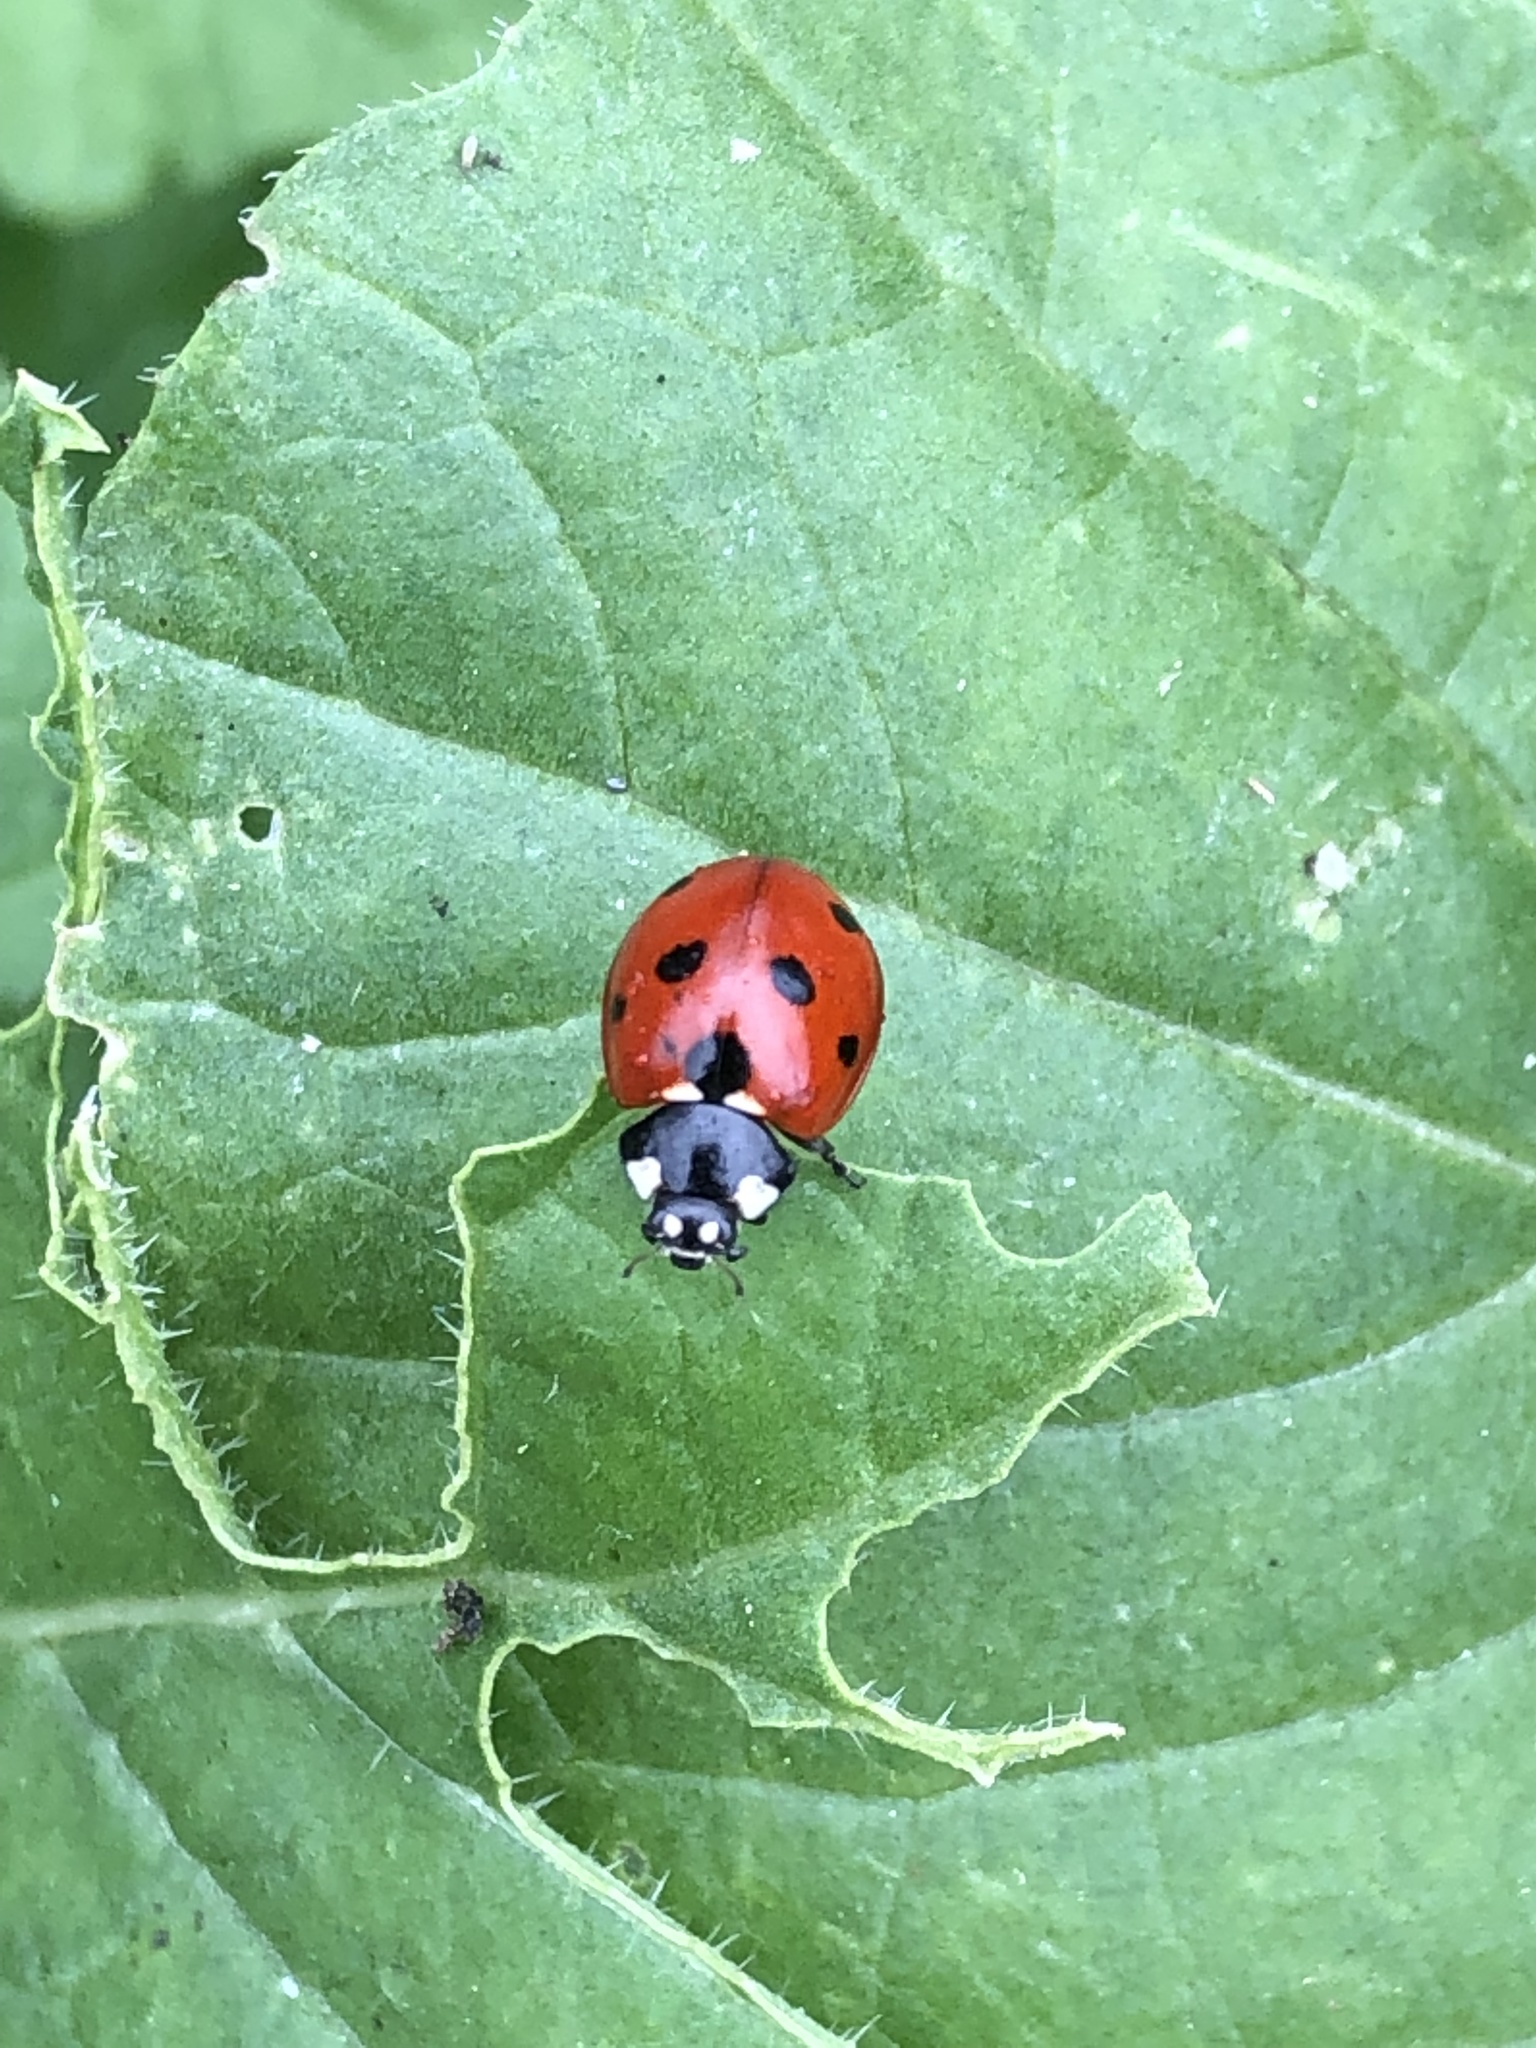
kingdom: Animalia
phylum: Arthropoda
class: Insecta
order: Coleoptera
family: Coccinellidae
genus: Coccinella
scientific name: Coccinella septempunctata
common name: Sevenspotted lady beetle
